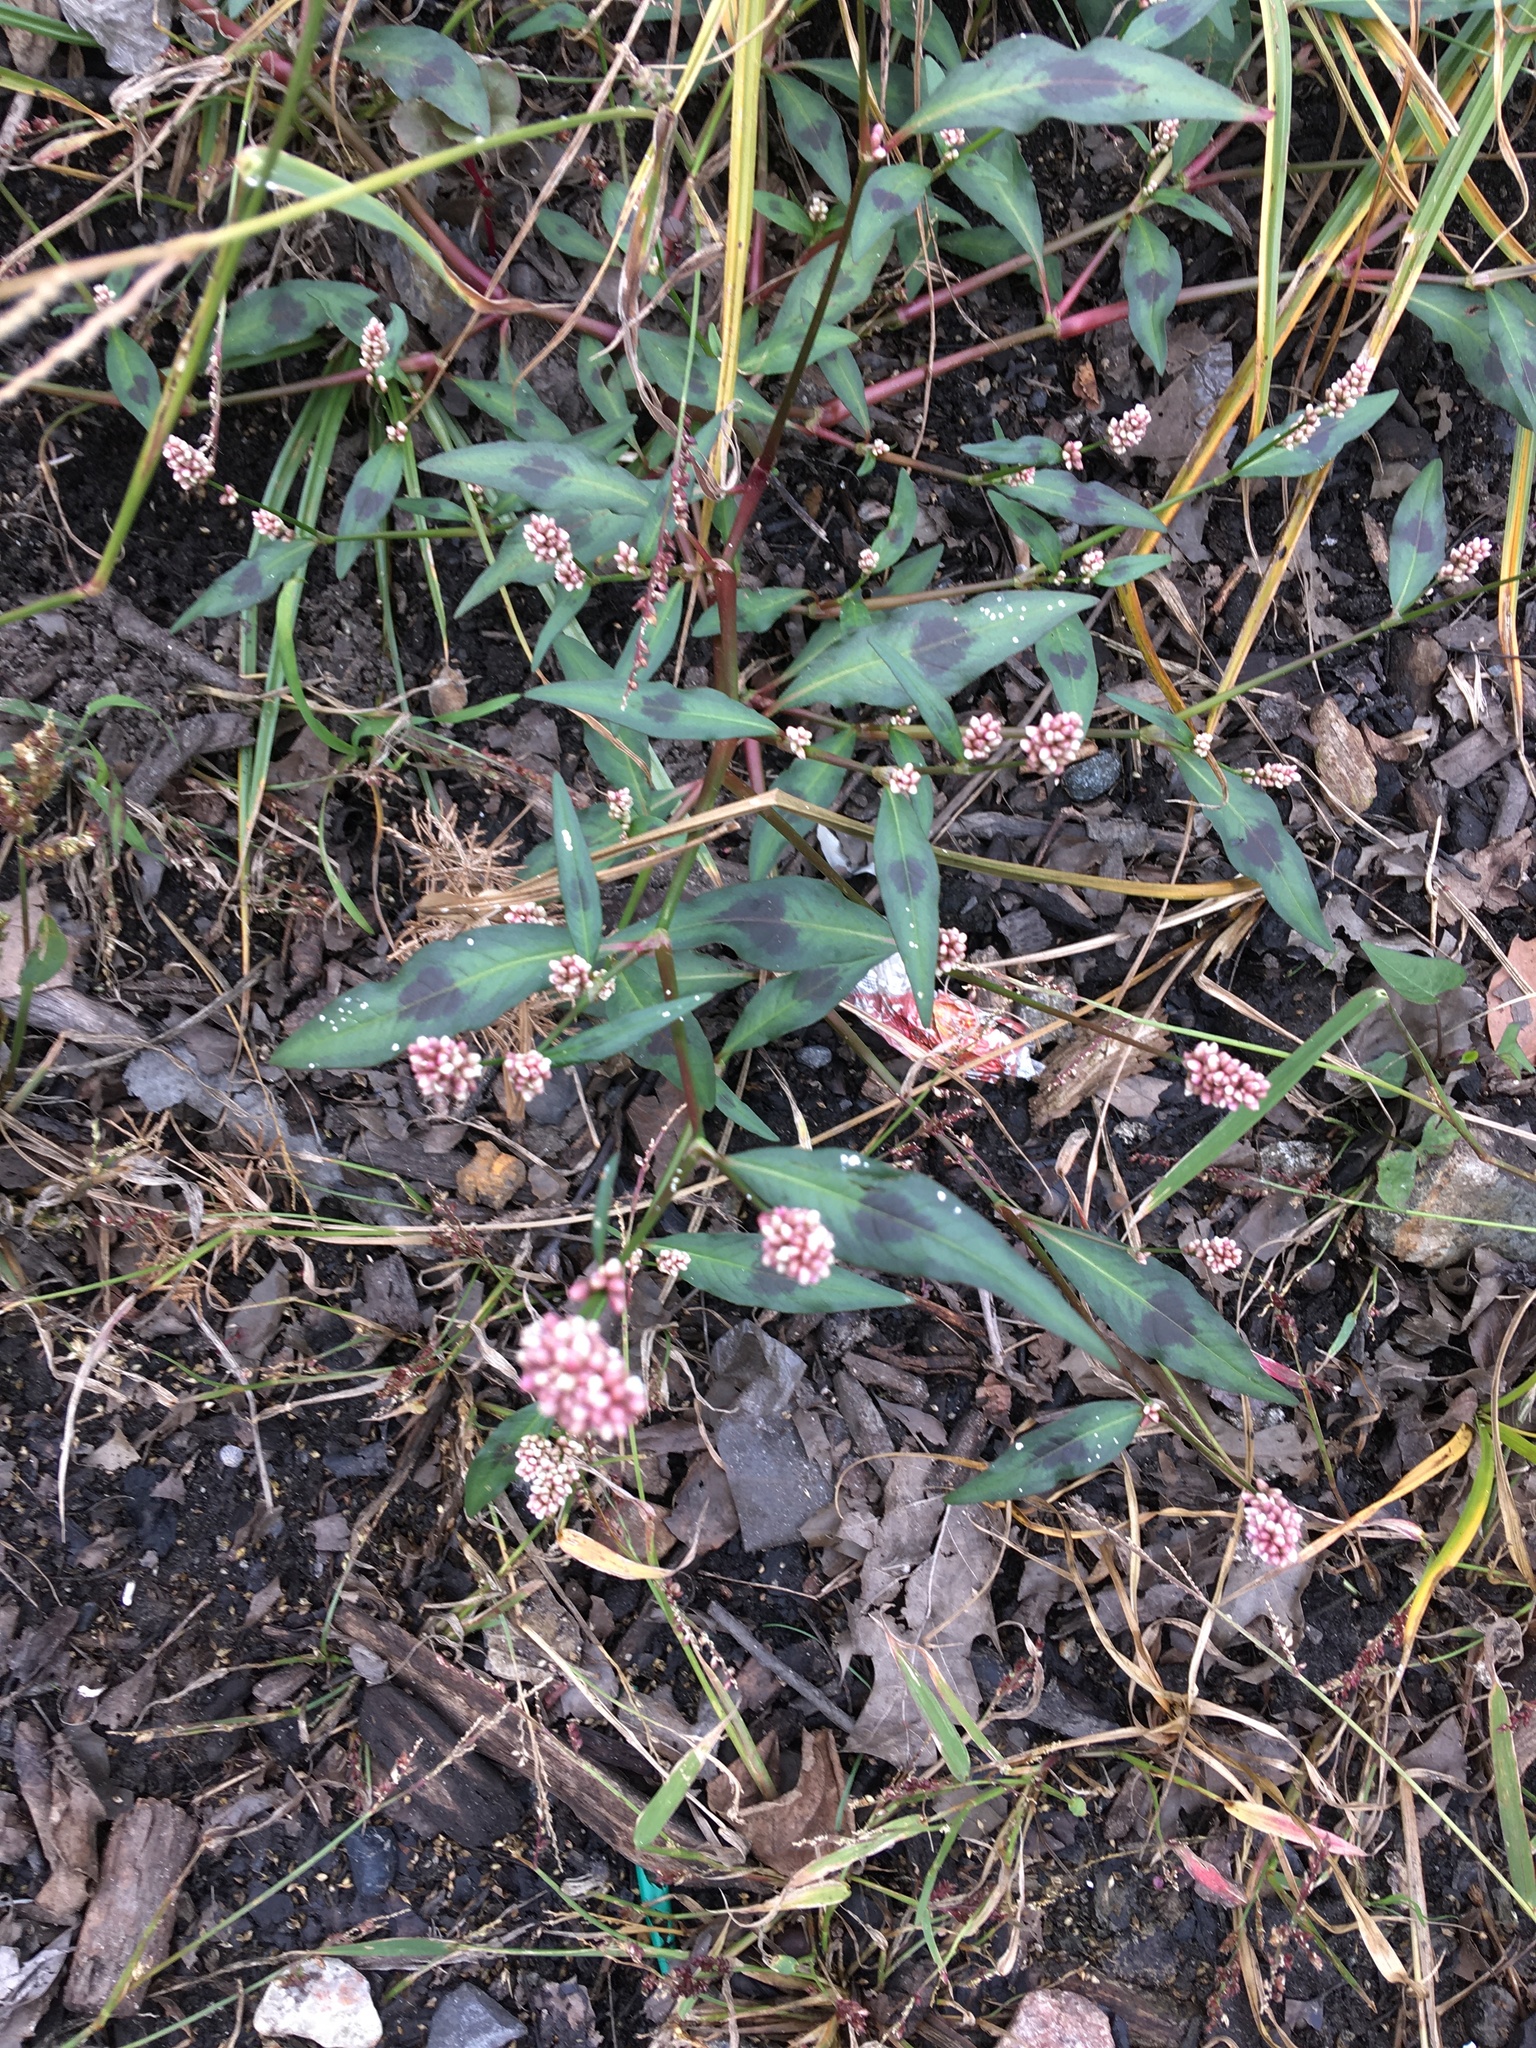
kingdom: Plantae
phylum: Tracheophyta
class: Magnoliopsida
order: Caryophyllales
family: Polygonaceae
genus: Persicaria
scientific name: Persicaria maculosa
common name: Redshank
